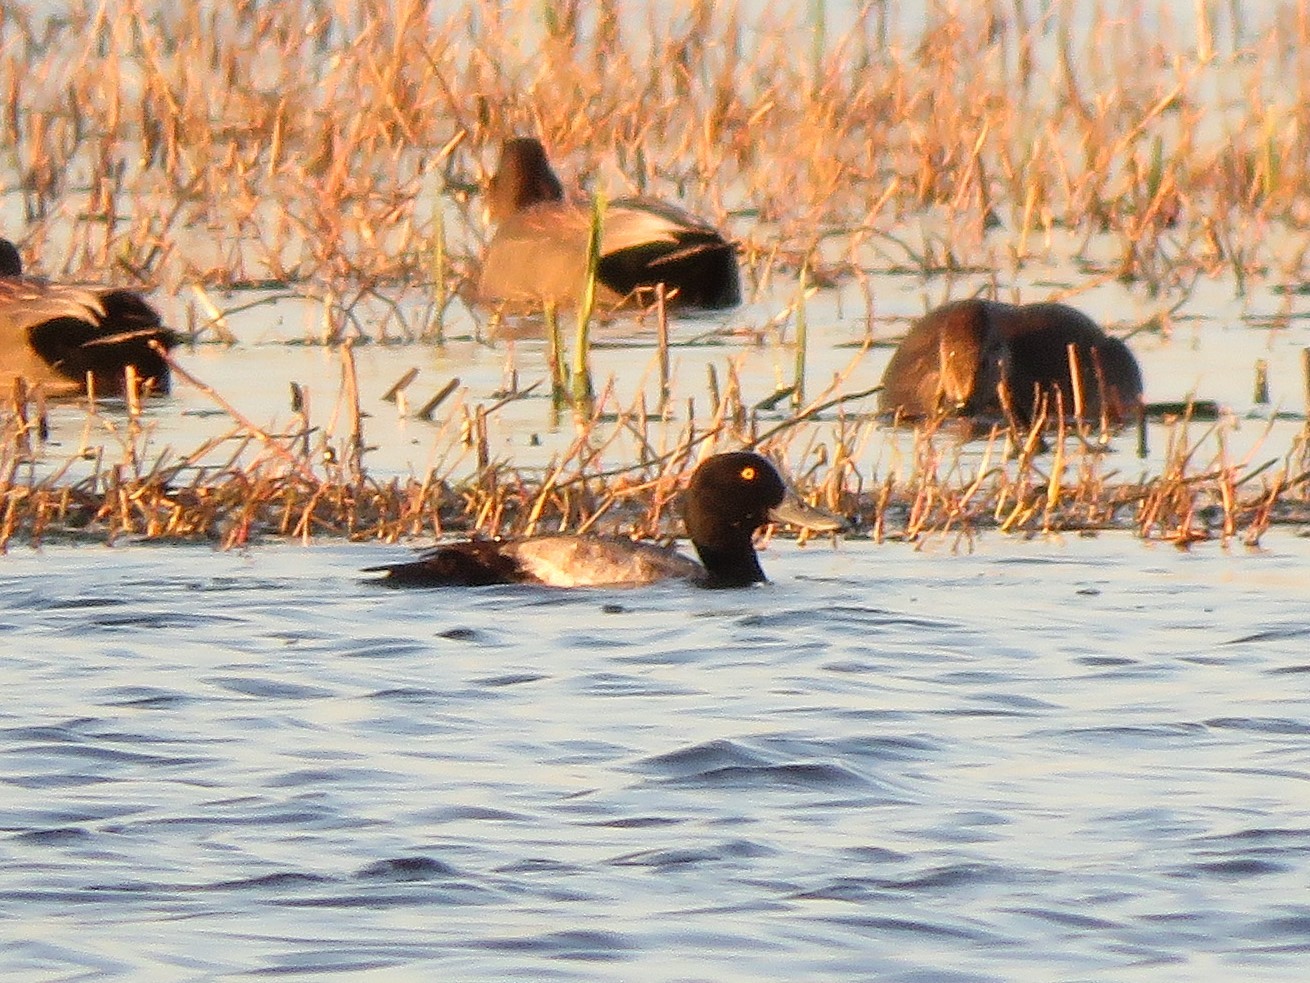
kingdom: Animalia
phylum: Chordata
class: Aves
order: Anseriformes
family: Anatidae
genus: Aythya
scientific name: Aythya marila
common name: Greater scaup
